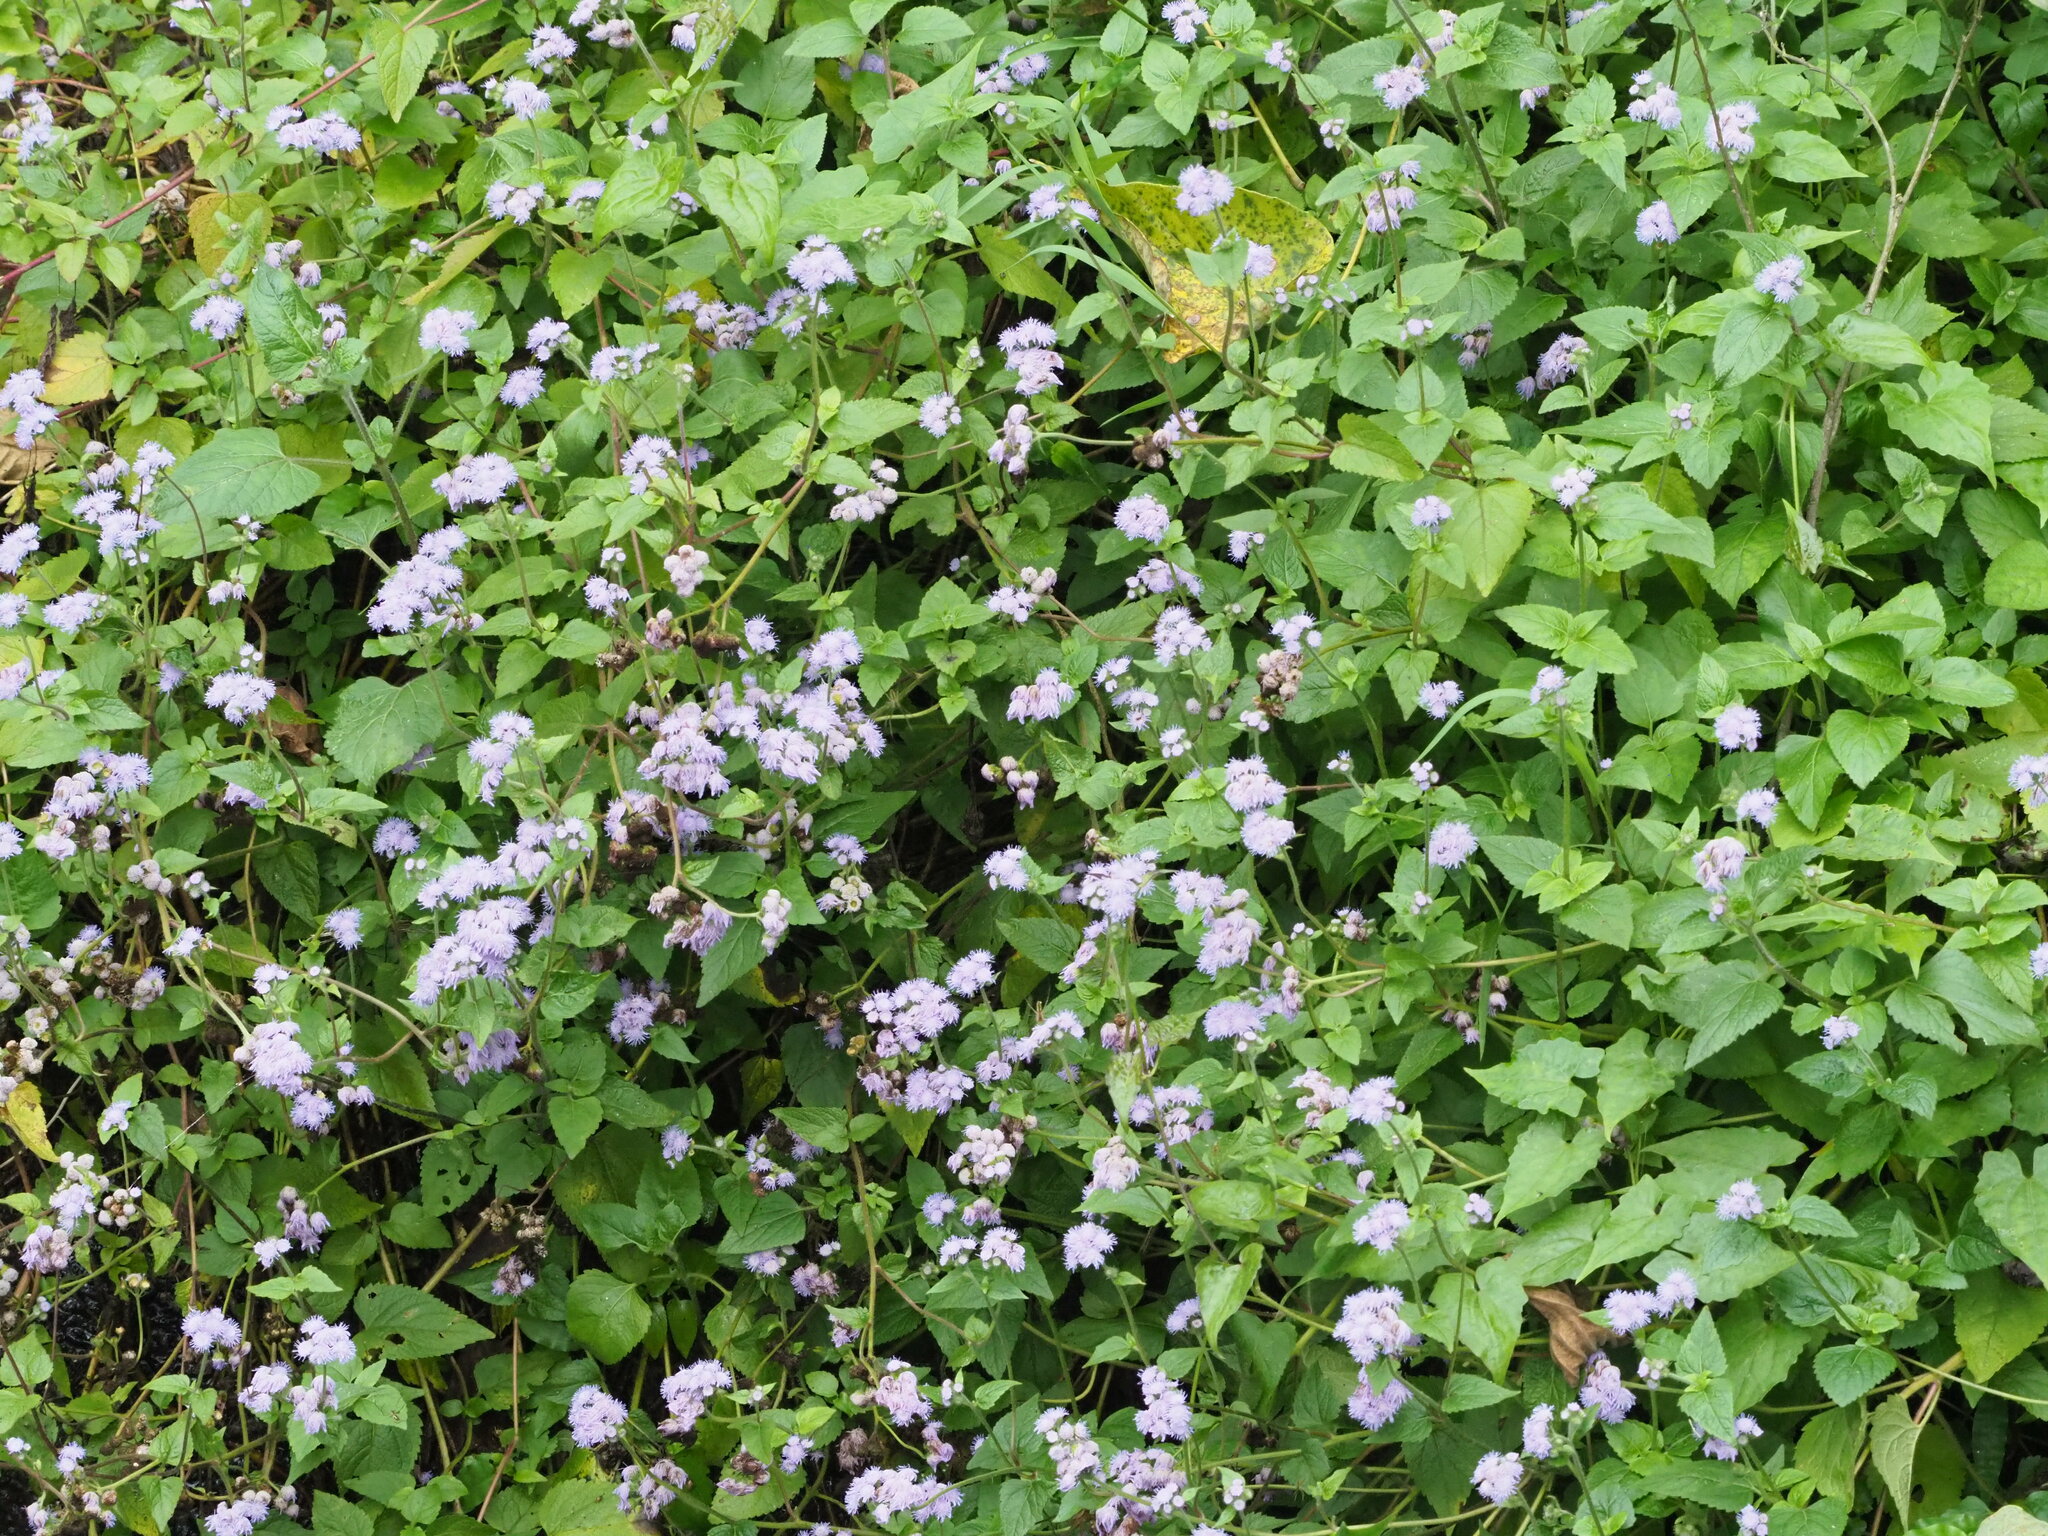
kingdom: Plantae
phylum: Tracheophyta
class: Magnoliopsida
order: Asterales
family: Asteraceae
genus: Ageratum
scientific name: Ageratum houstonianum
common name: Bluemink
